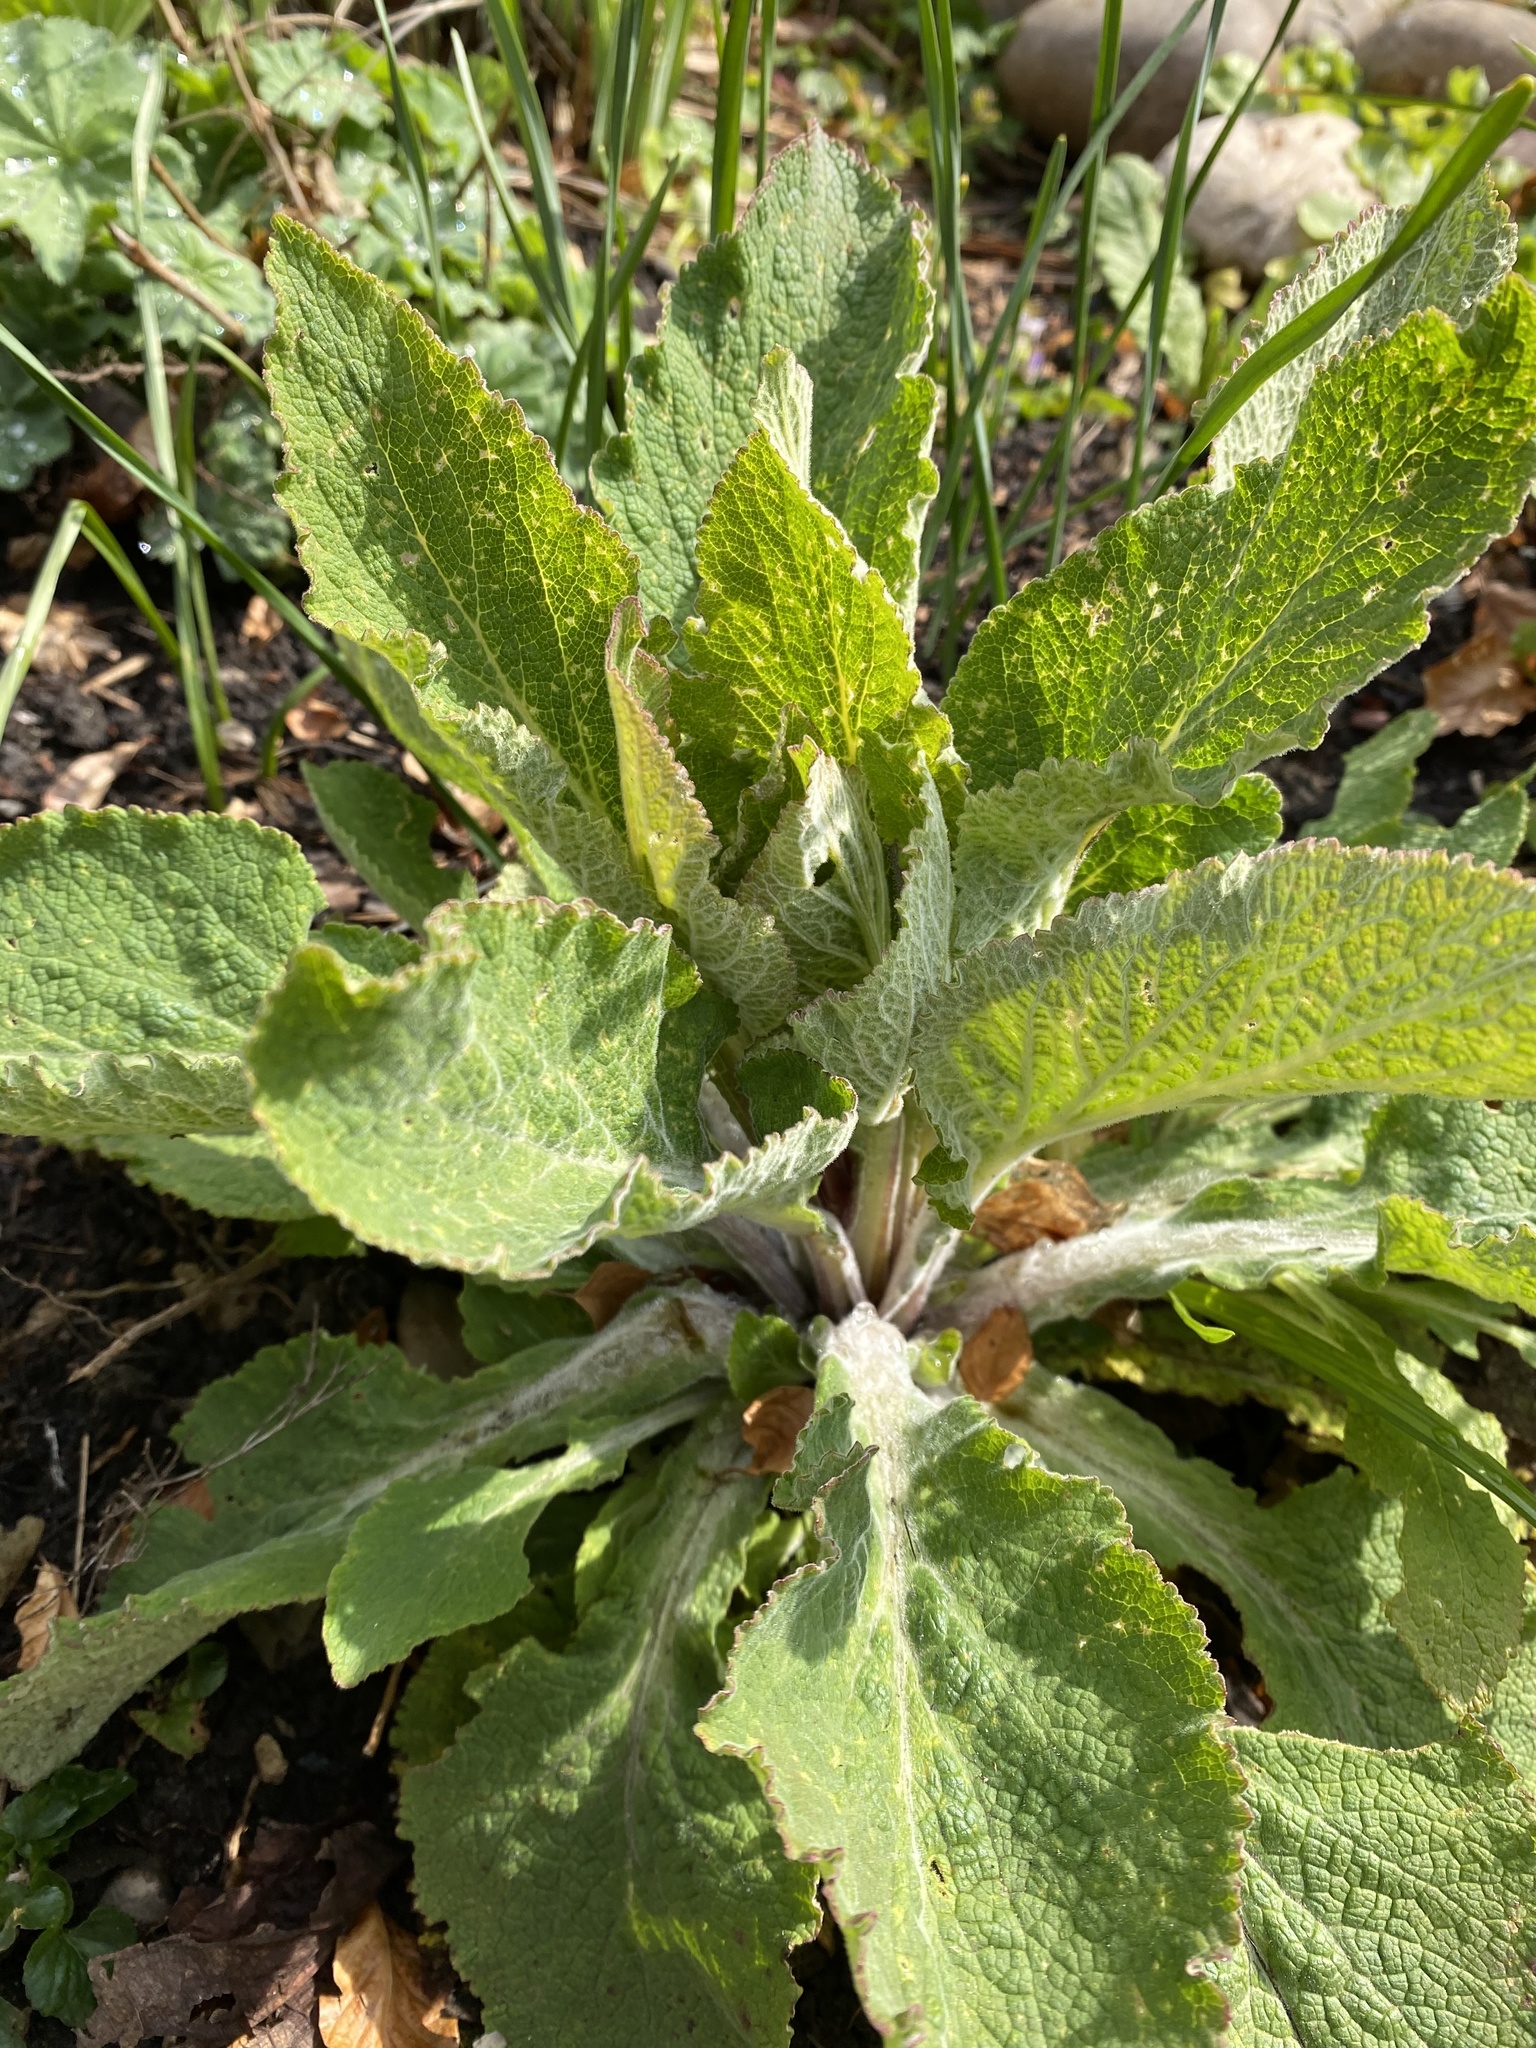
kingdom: Plantae
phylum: Tracheophyta
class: Magnoliopsida
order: Lamiales
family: Plantaginaceae
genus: Digitalis
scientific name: Digitalis purpurea
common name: Foxglove
